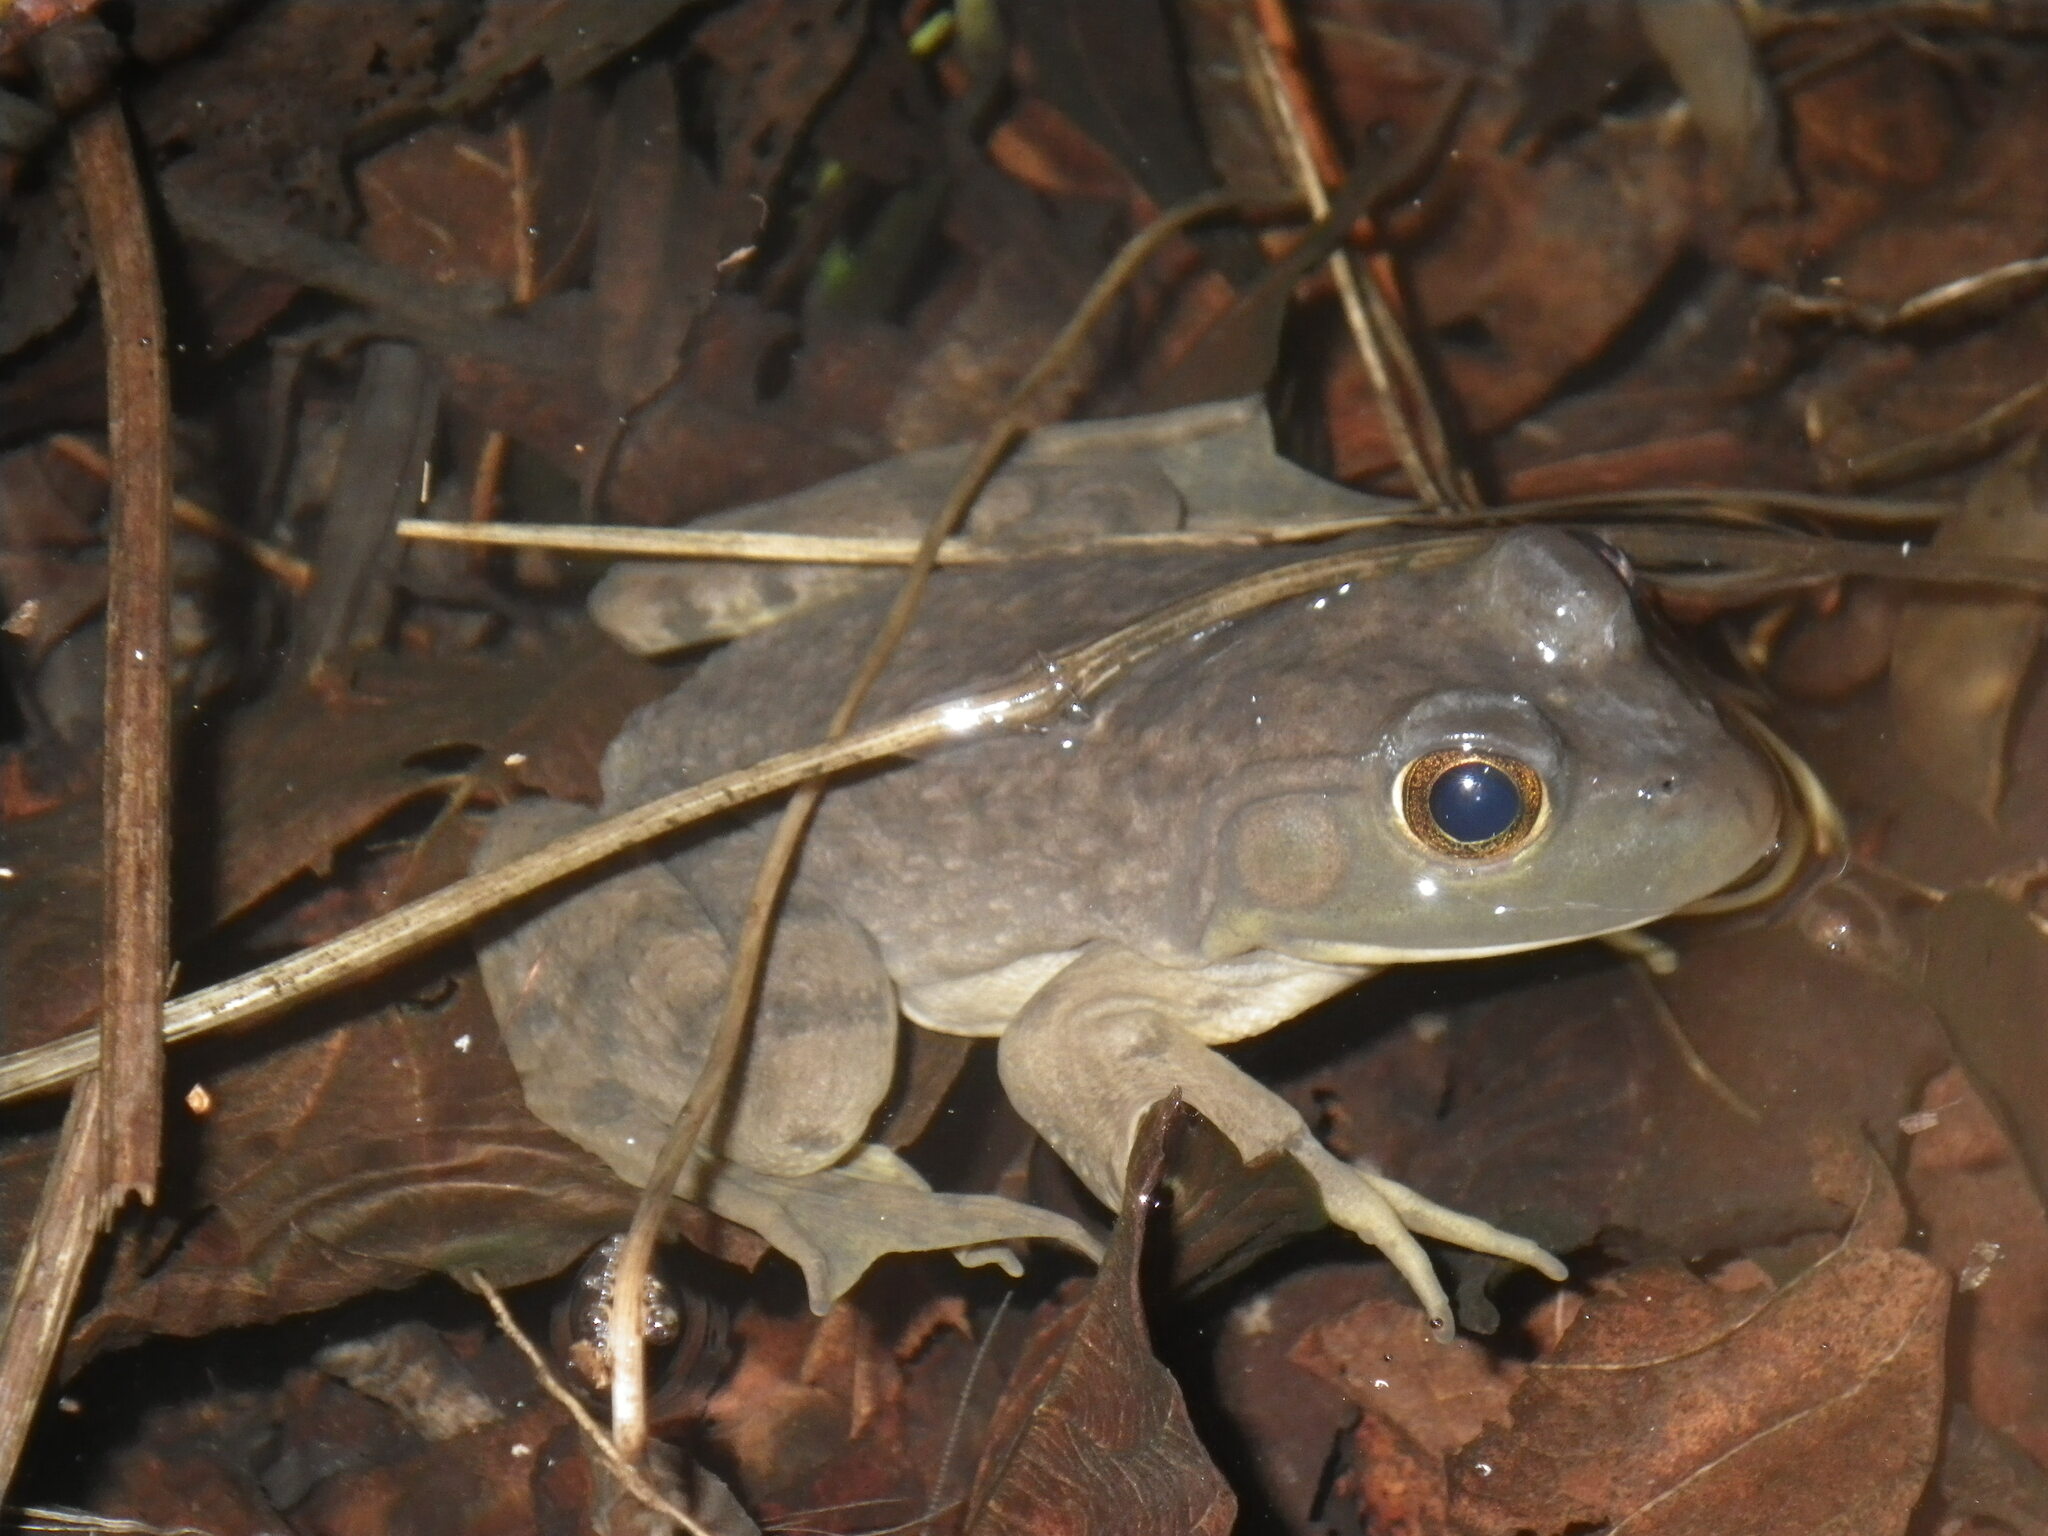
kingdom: Animalia
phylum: Chordata
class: Amphibia
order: Anura
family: Ranidae
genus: Lithobates
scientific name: Lithobates catesbeianus
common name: American bullfrog
